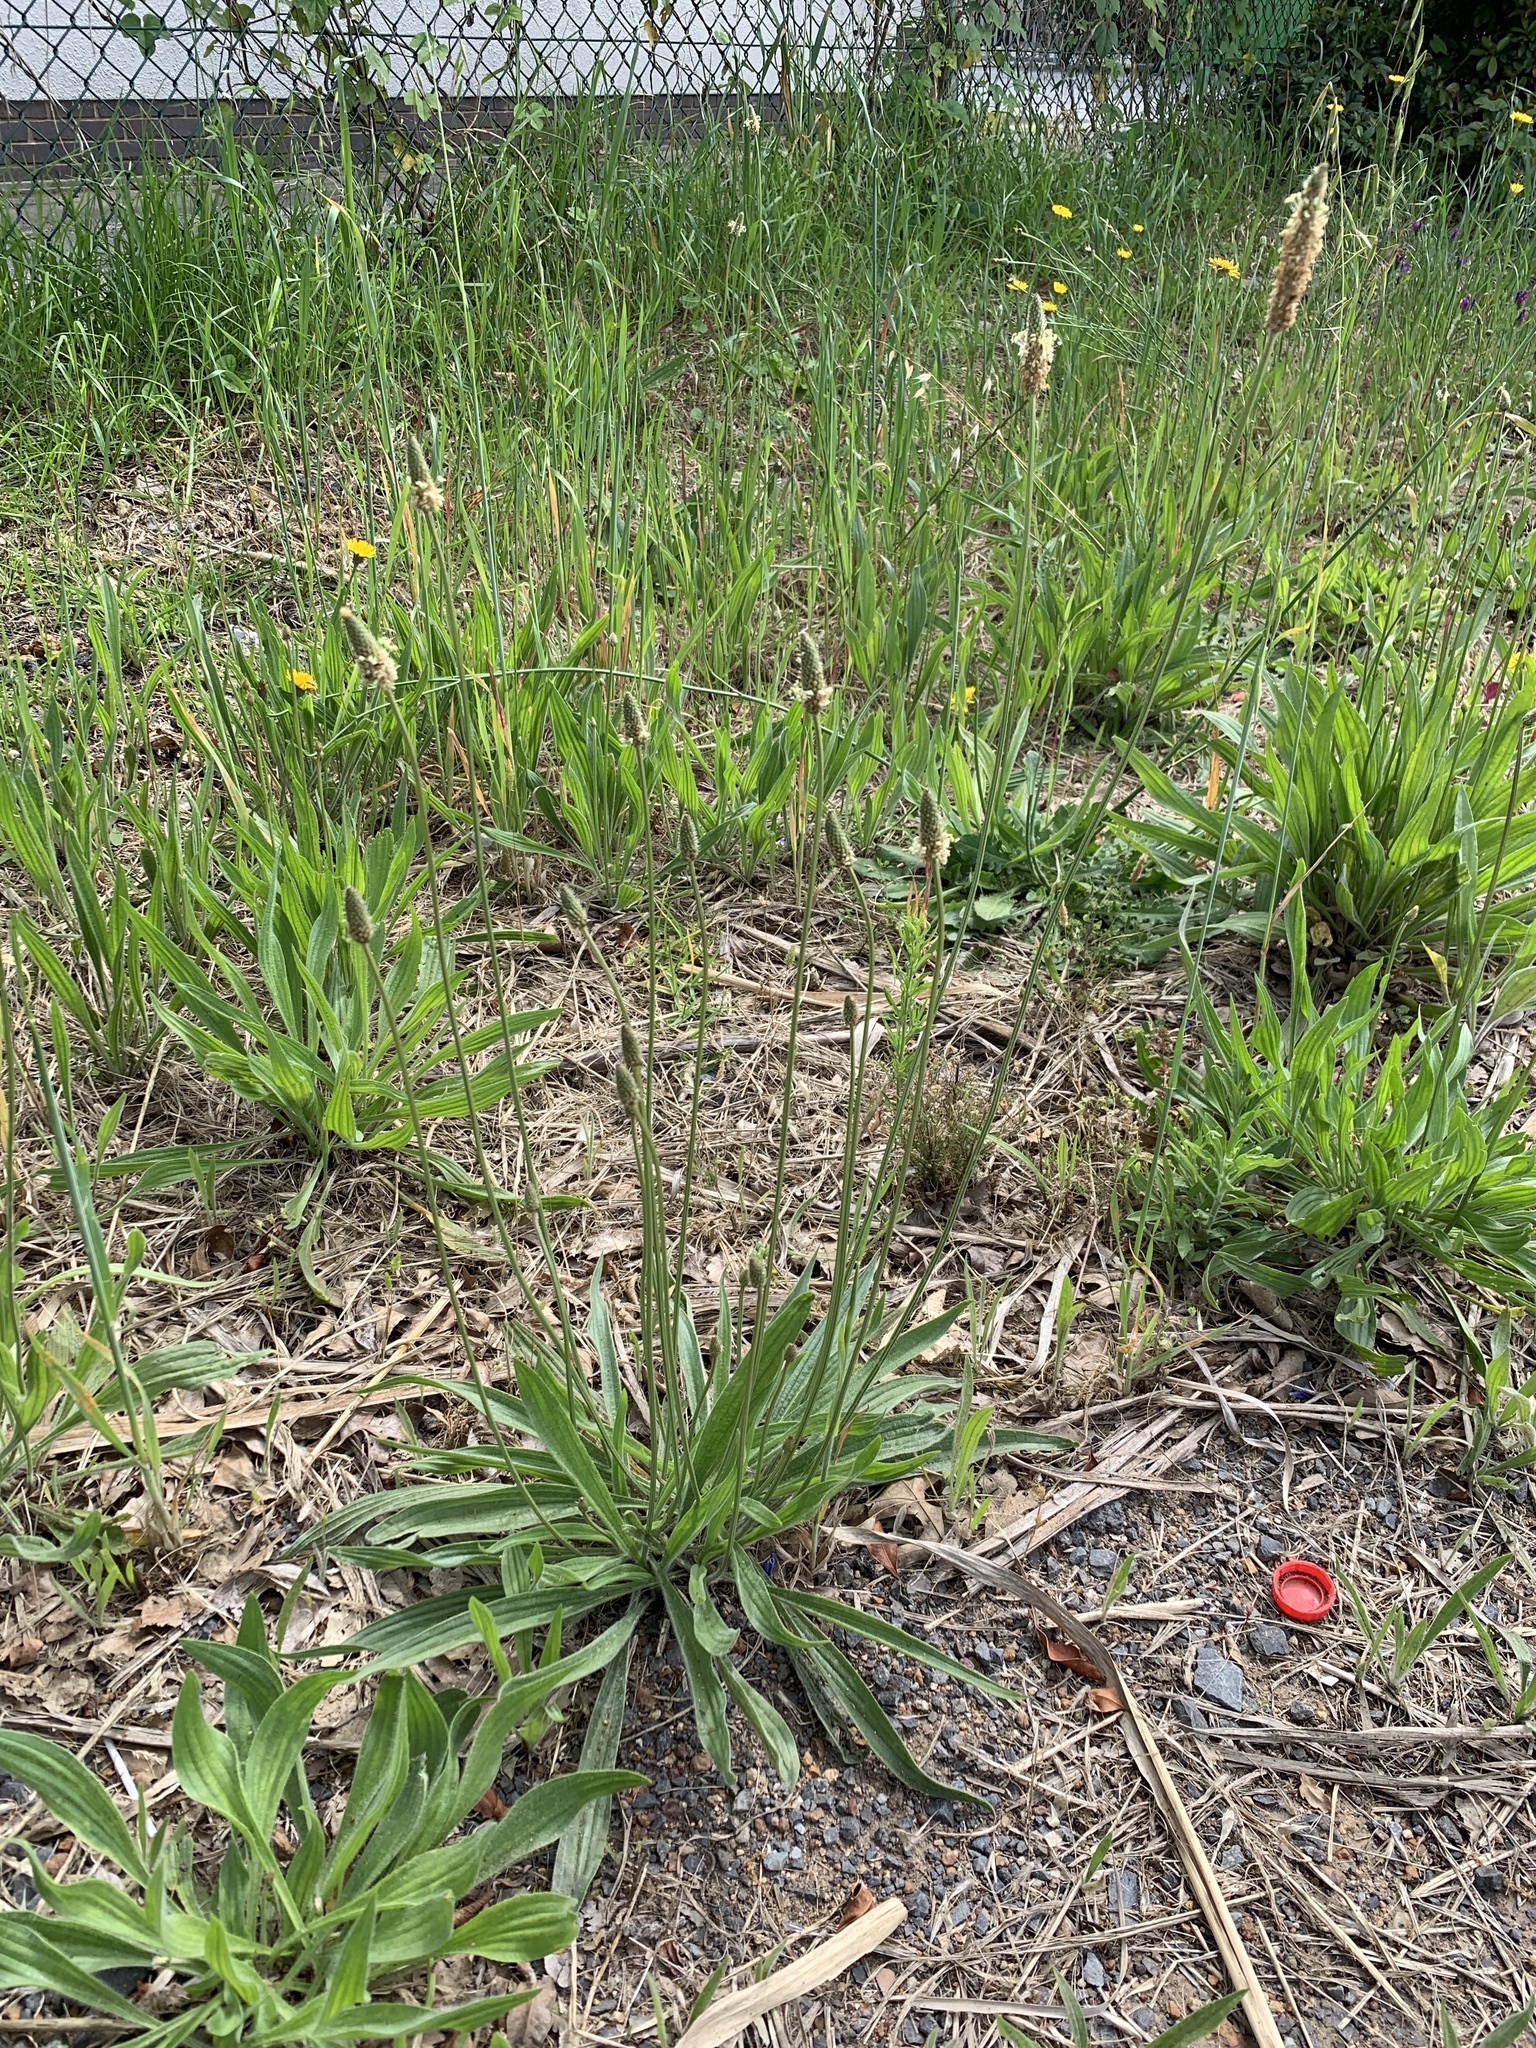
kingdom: Plantae
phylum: Tracheophyta
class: Magnoliopsida
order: Lamiales
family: Plantaginaceae
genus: Plantago
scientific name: Plantago lanceolata
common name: Ribwort plantain
